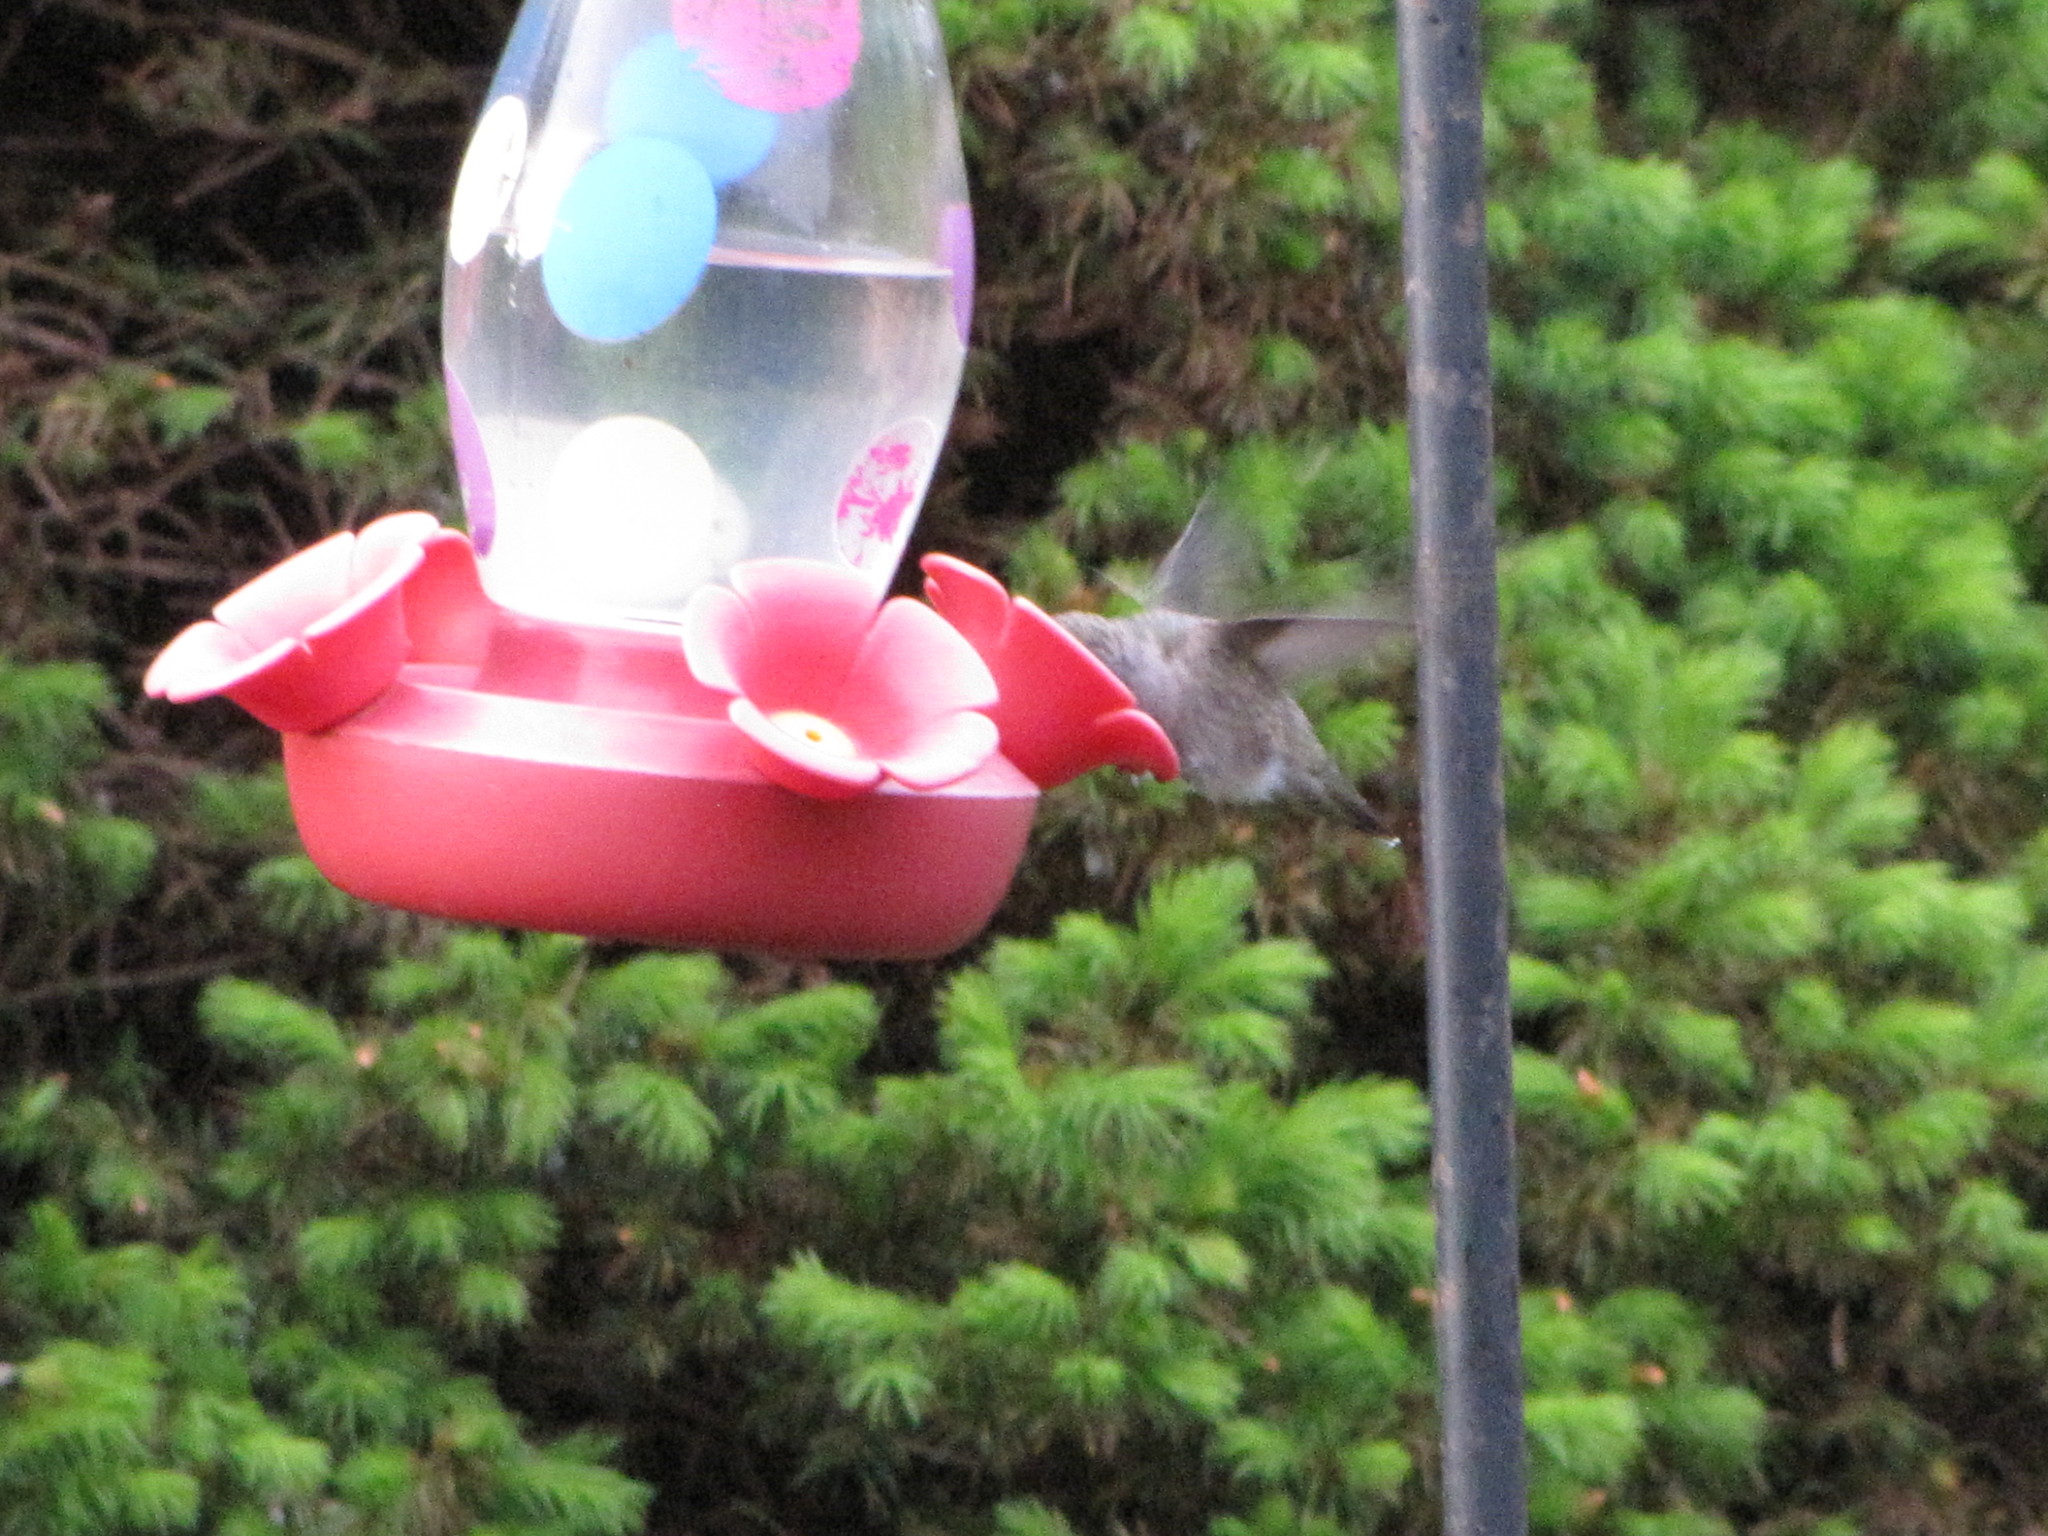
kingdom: Animalia
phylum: Chordata
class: Aves
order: Apodiformes
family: Trochilidae
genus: Calypte
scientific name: Calypte anna
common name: Anna's hummingbird
